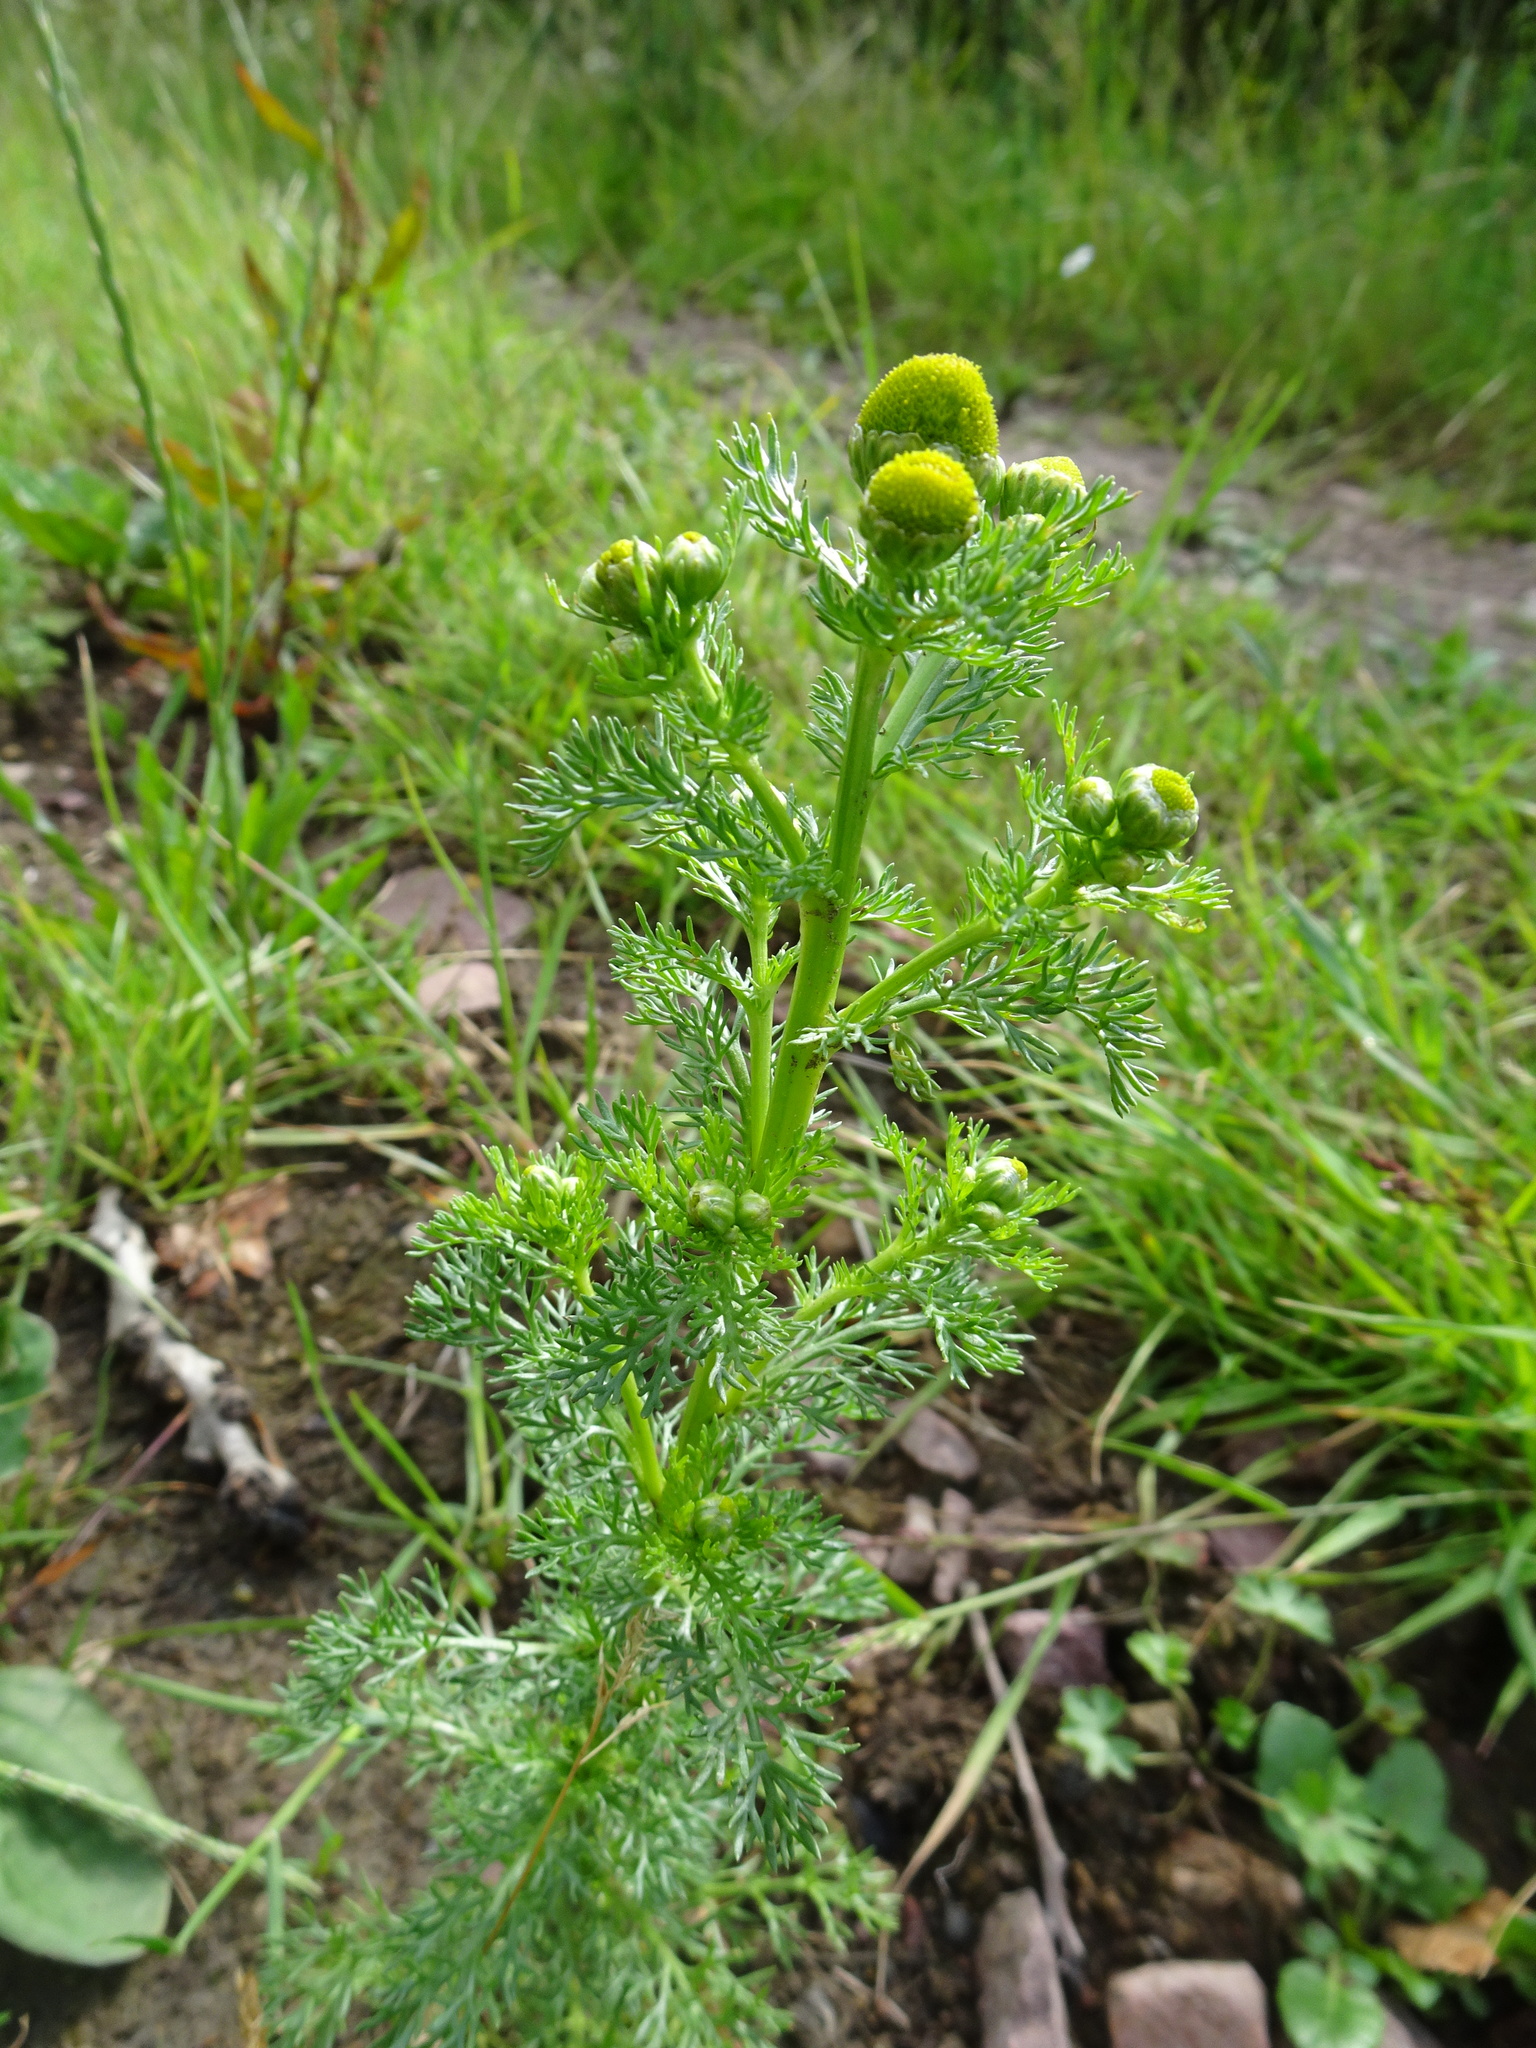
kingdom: Plantae
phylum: Tracheophyta
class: Magnoliopsida
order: Asterales
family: Asteraceae
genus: Matricaria
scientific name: Matricaria discoidea
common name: Disc mayweed
